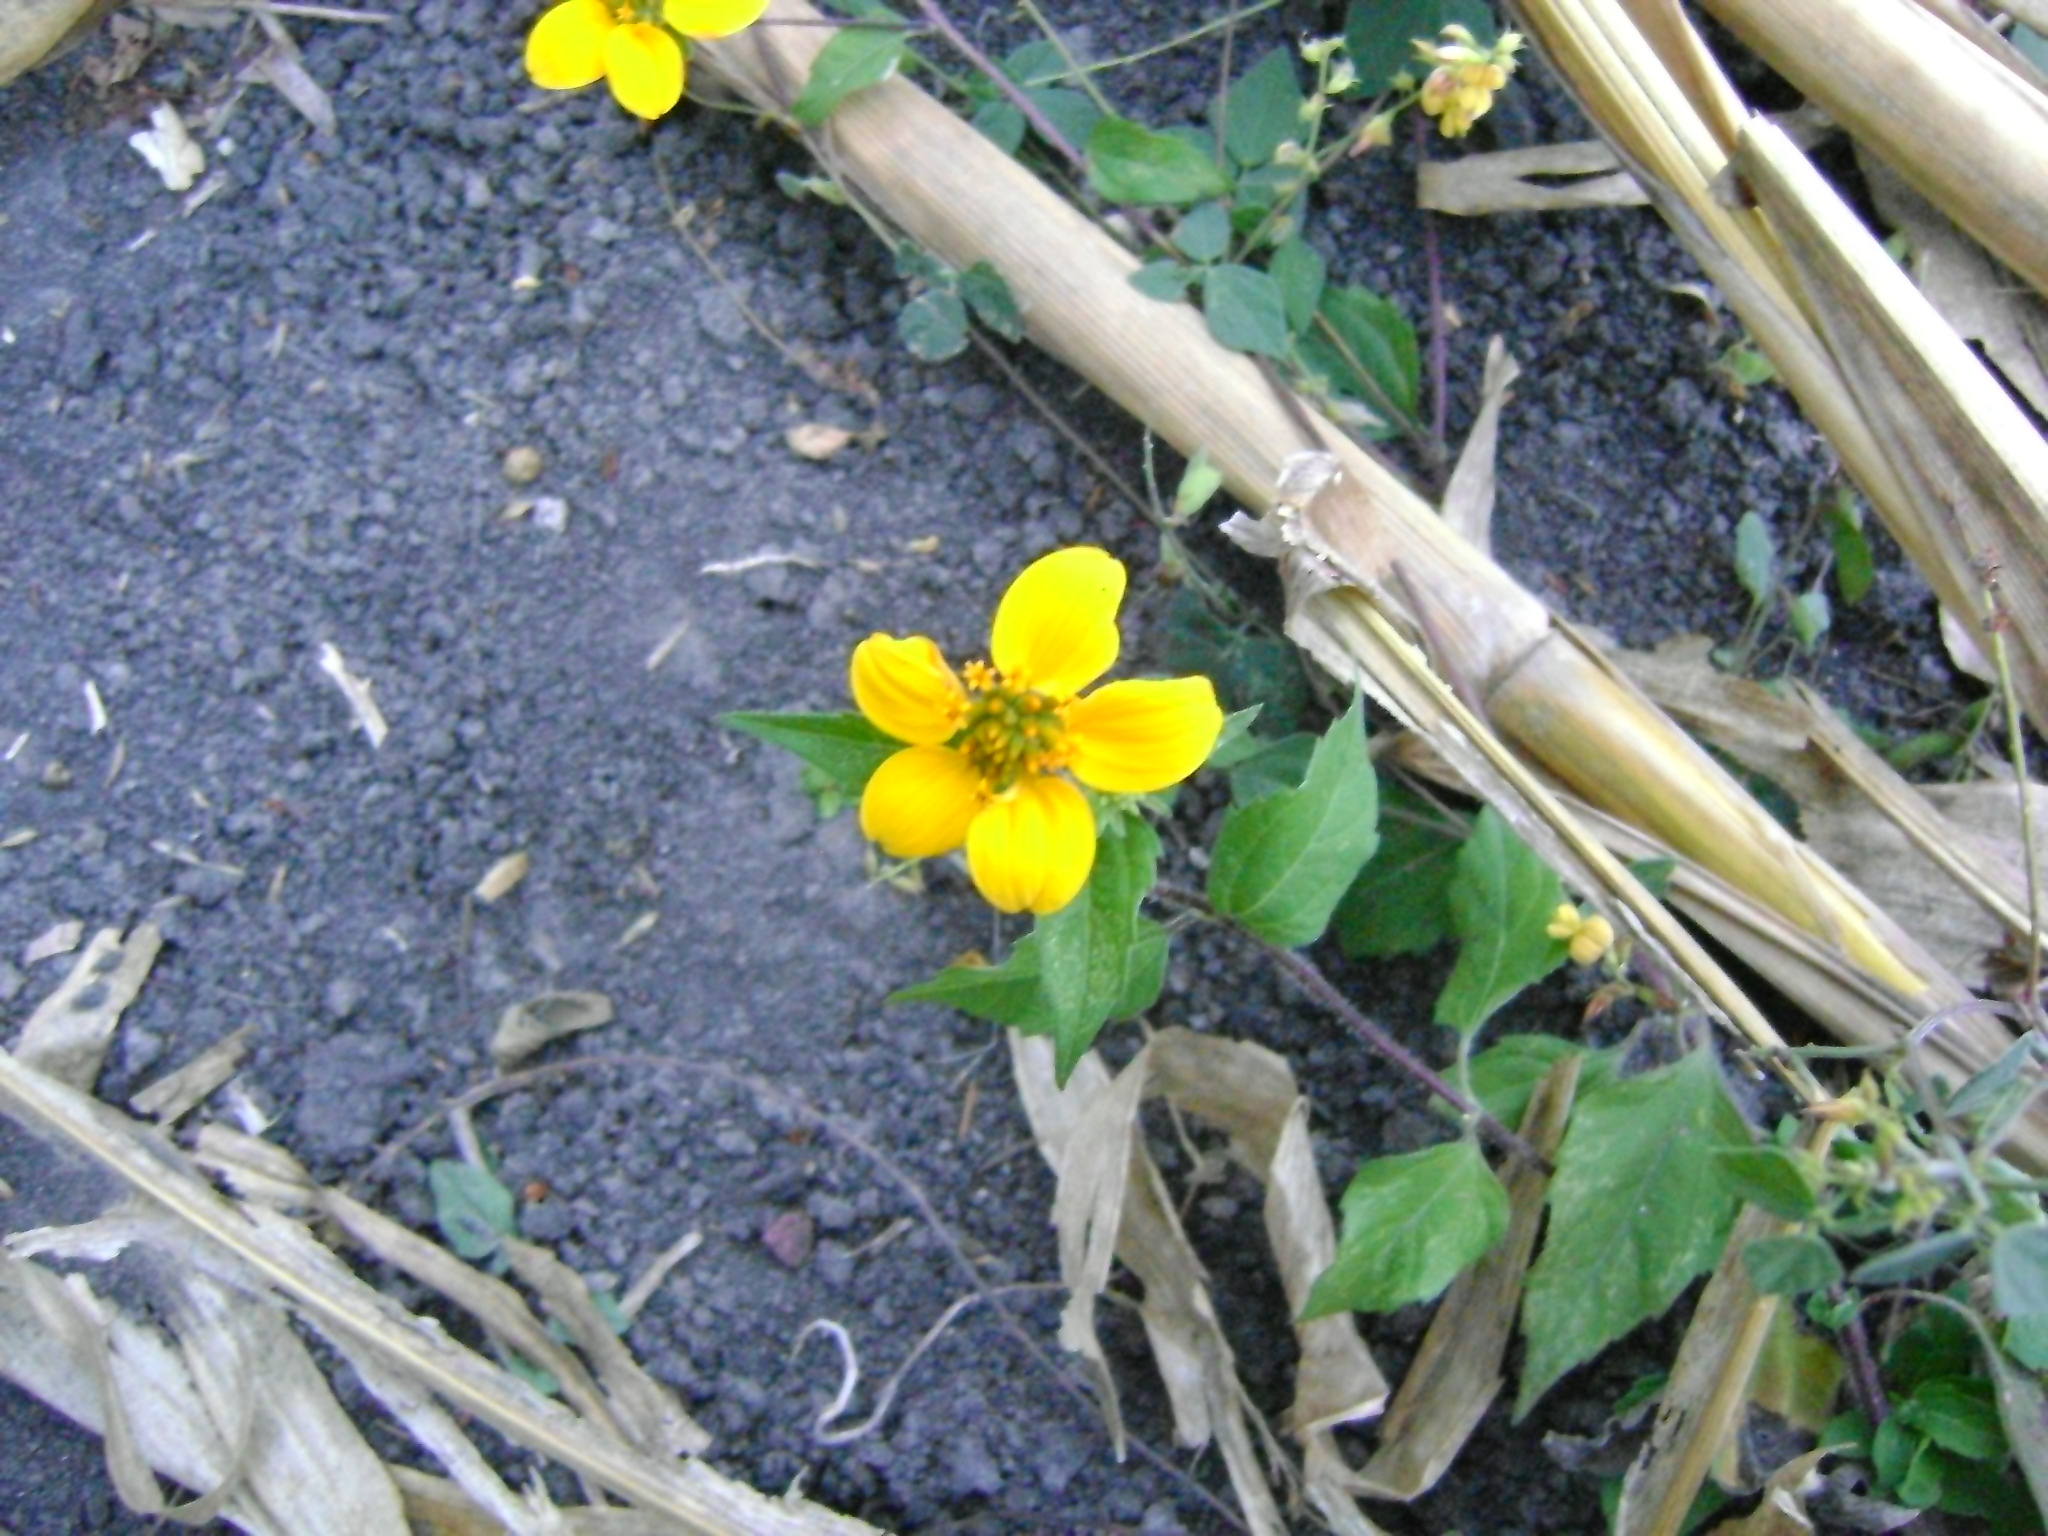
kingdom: Plantae
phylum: Tracheophyta
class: Magnoliopsida
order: Asterales
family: Asteraceae
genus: Sclerocarpus
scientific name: Sclerocarpus uniserialis
